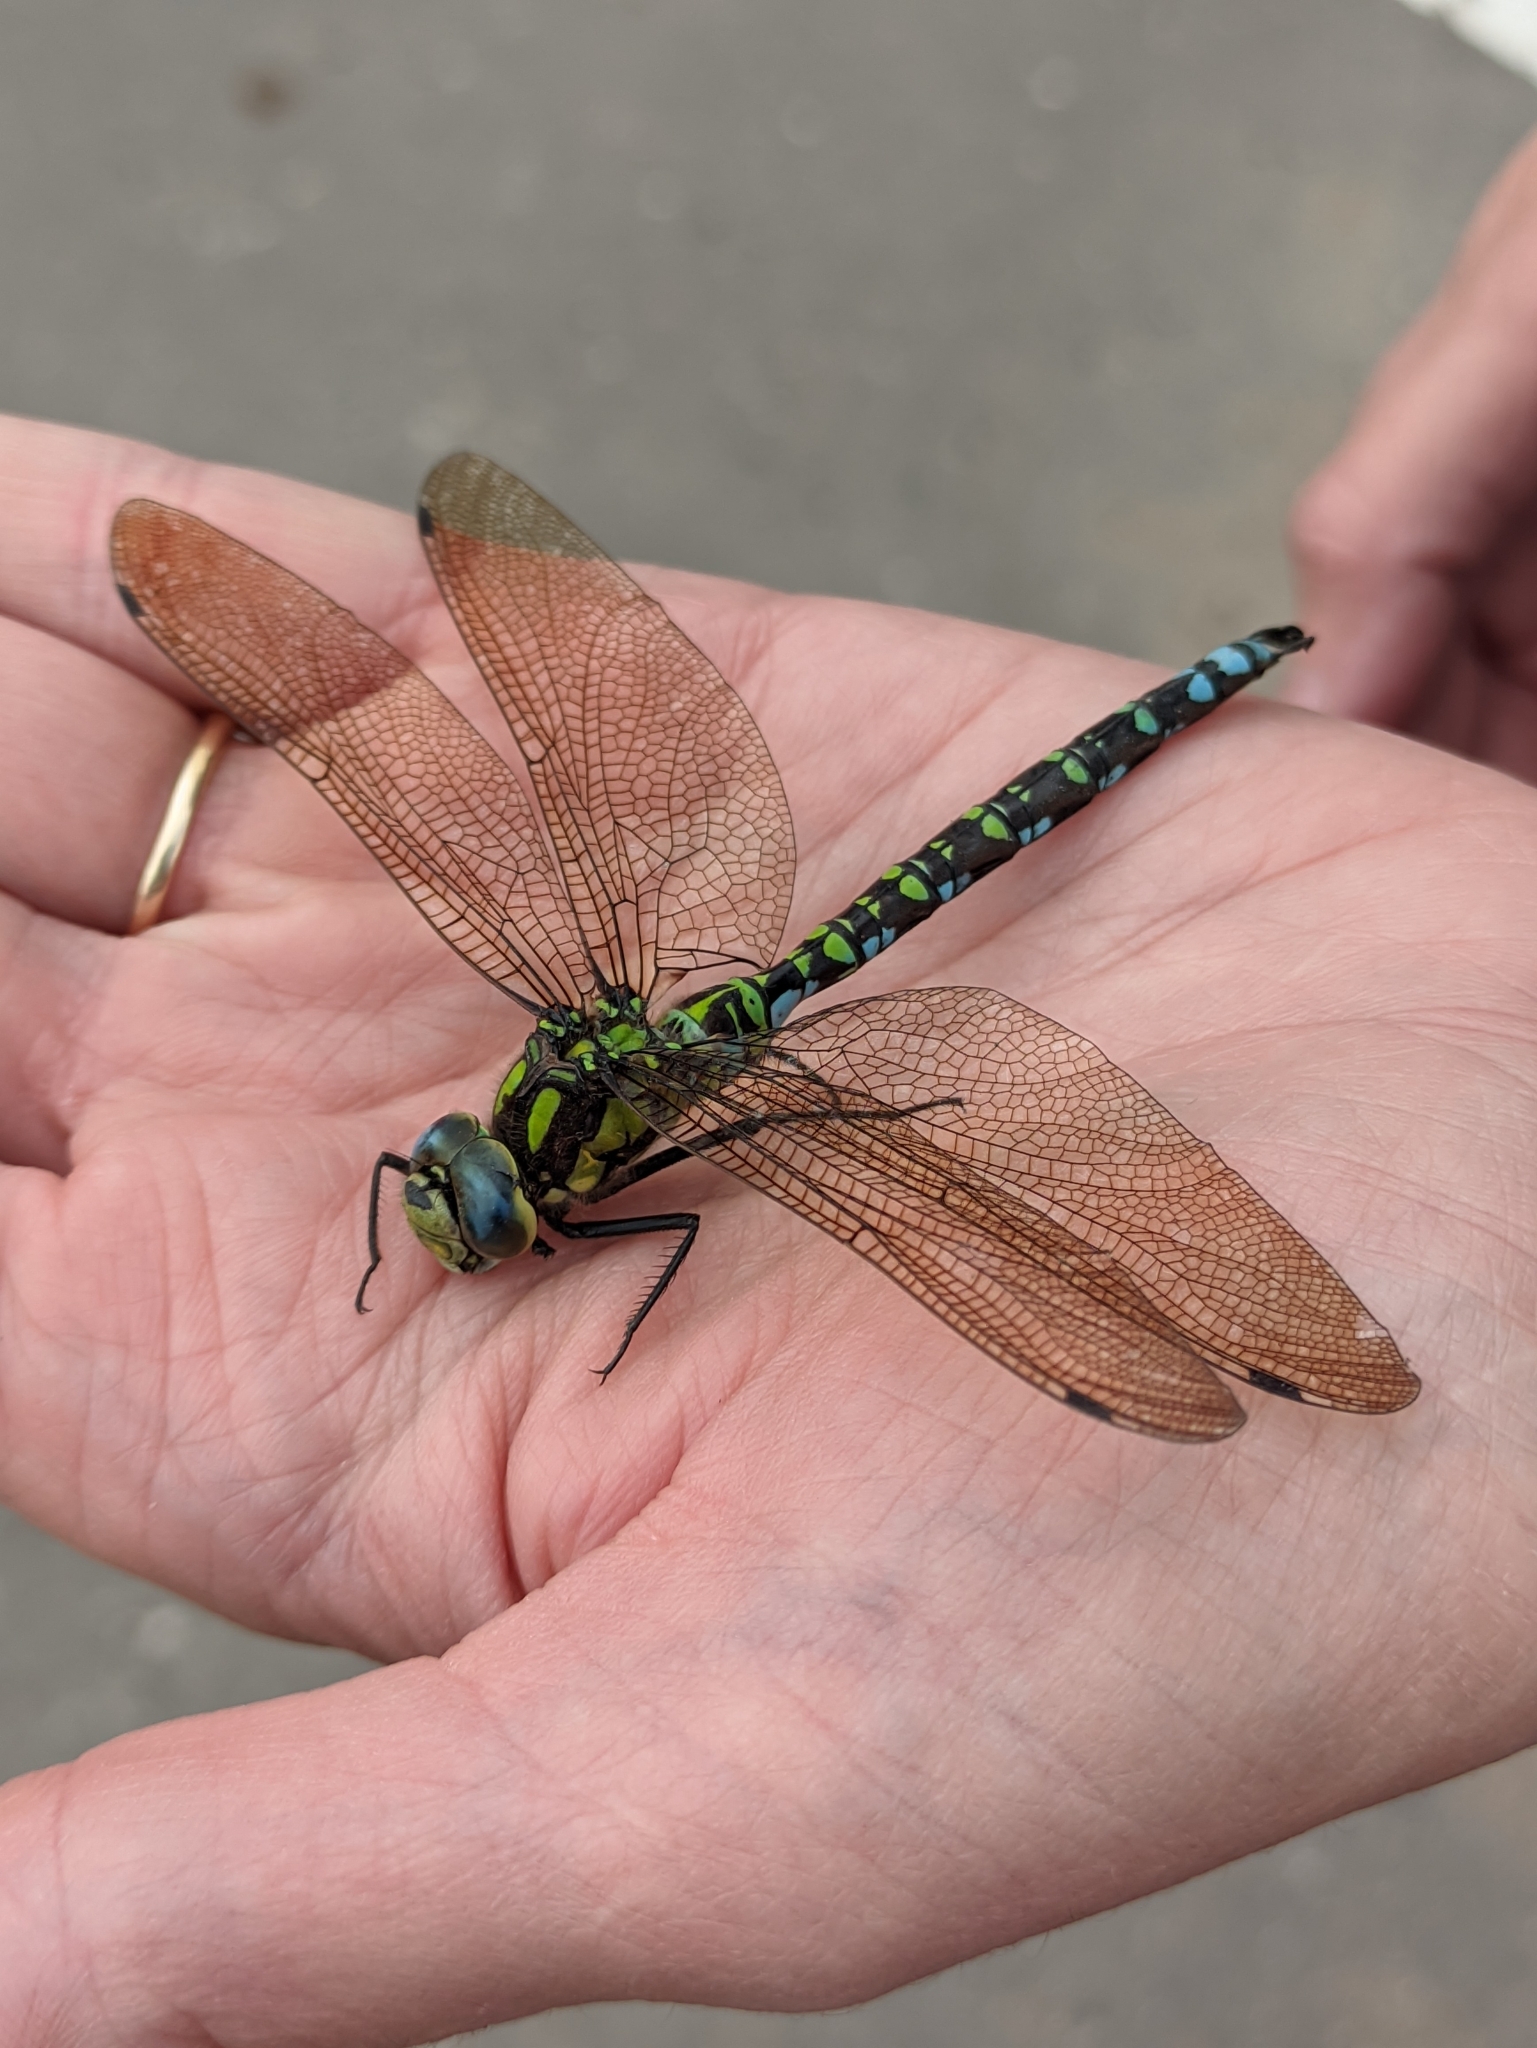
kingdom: Animalia
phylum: Arthropoda
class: Insecta
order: Odonata
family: Aeshnidae
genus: Aeshna
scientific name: Aeshna cyanea
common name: Southern hawker
